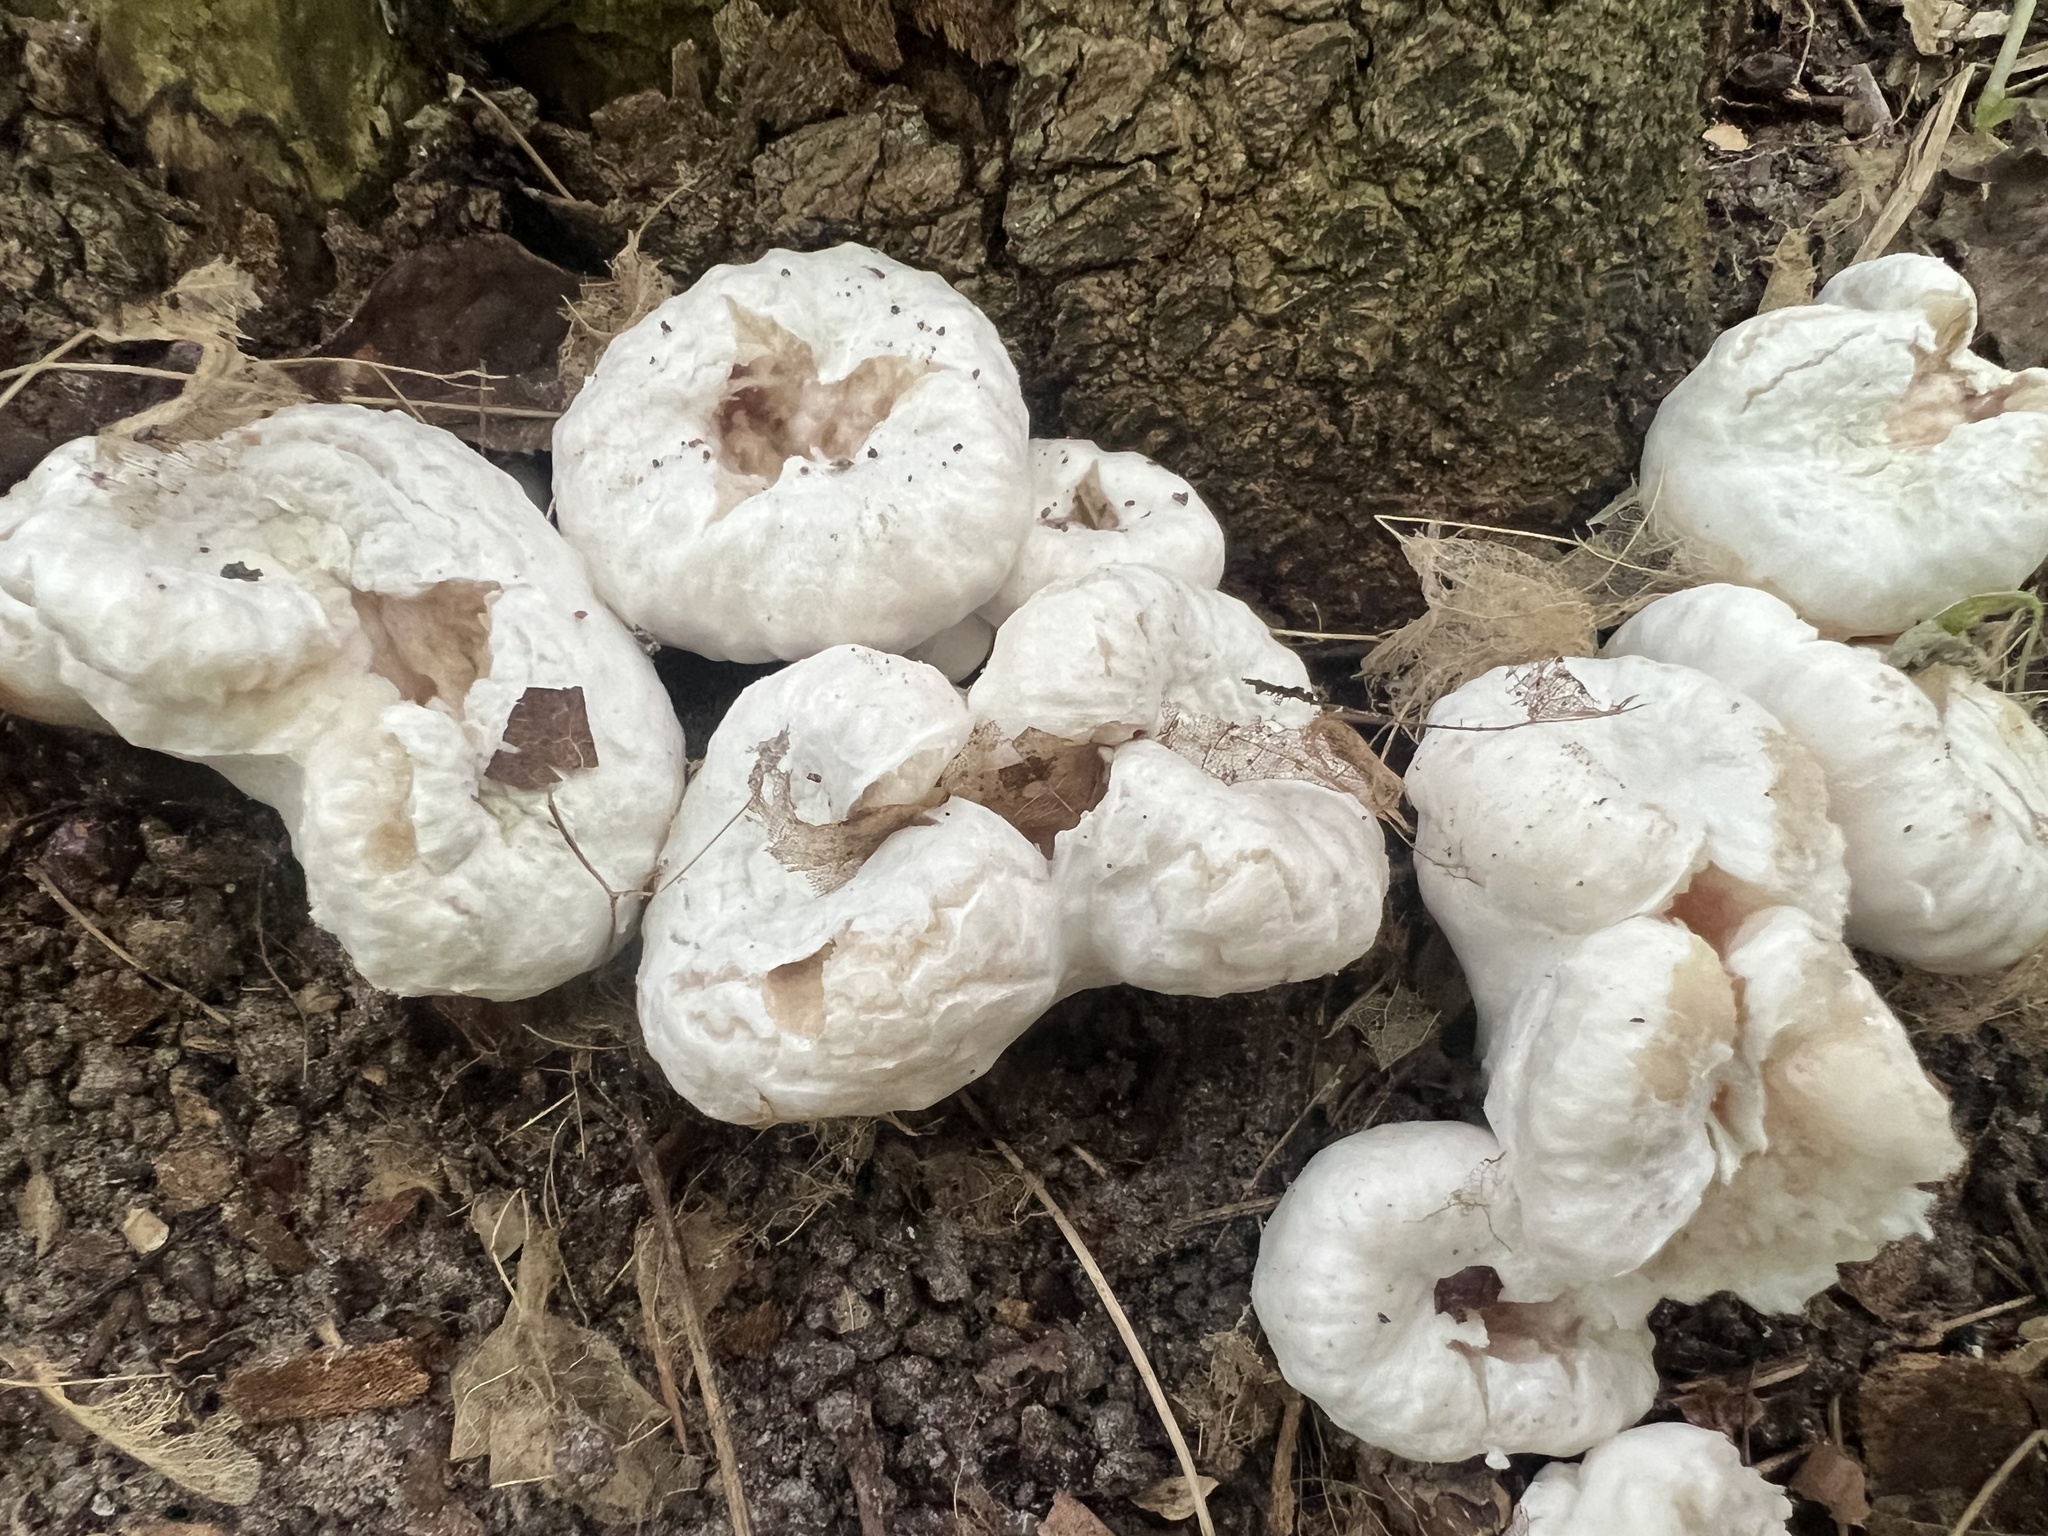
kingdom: Fungi
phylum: Basidiomycota
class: Agaricomycetes
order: Agaricales
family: Entolomataceae
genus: Entoloma
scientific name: Entoloma abortivum
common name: Aborted entoloma
